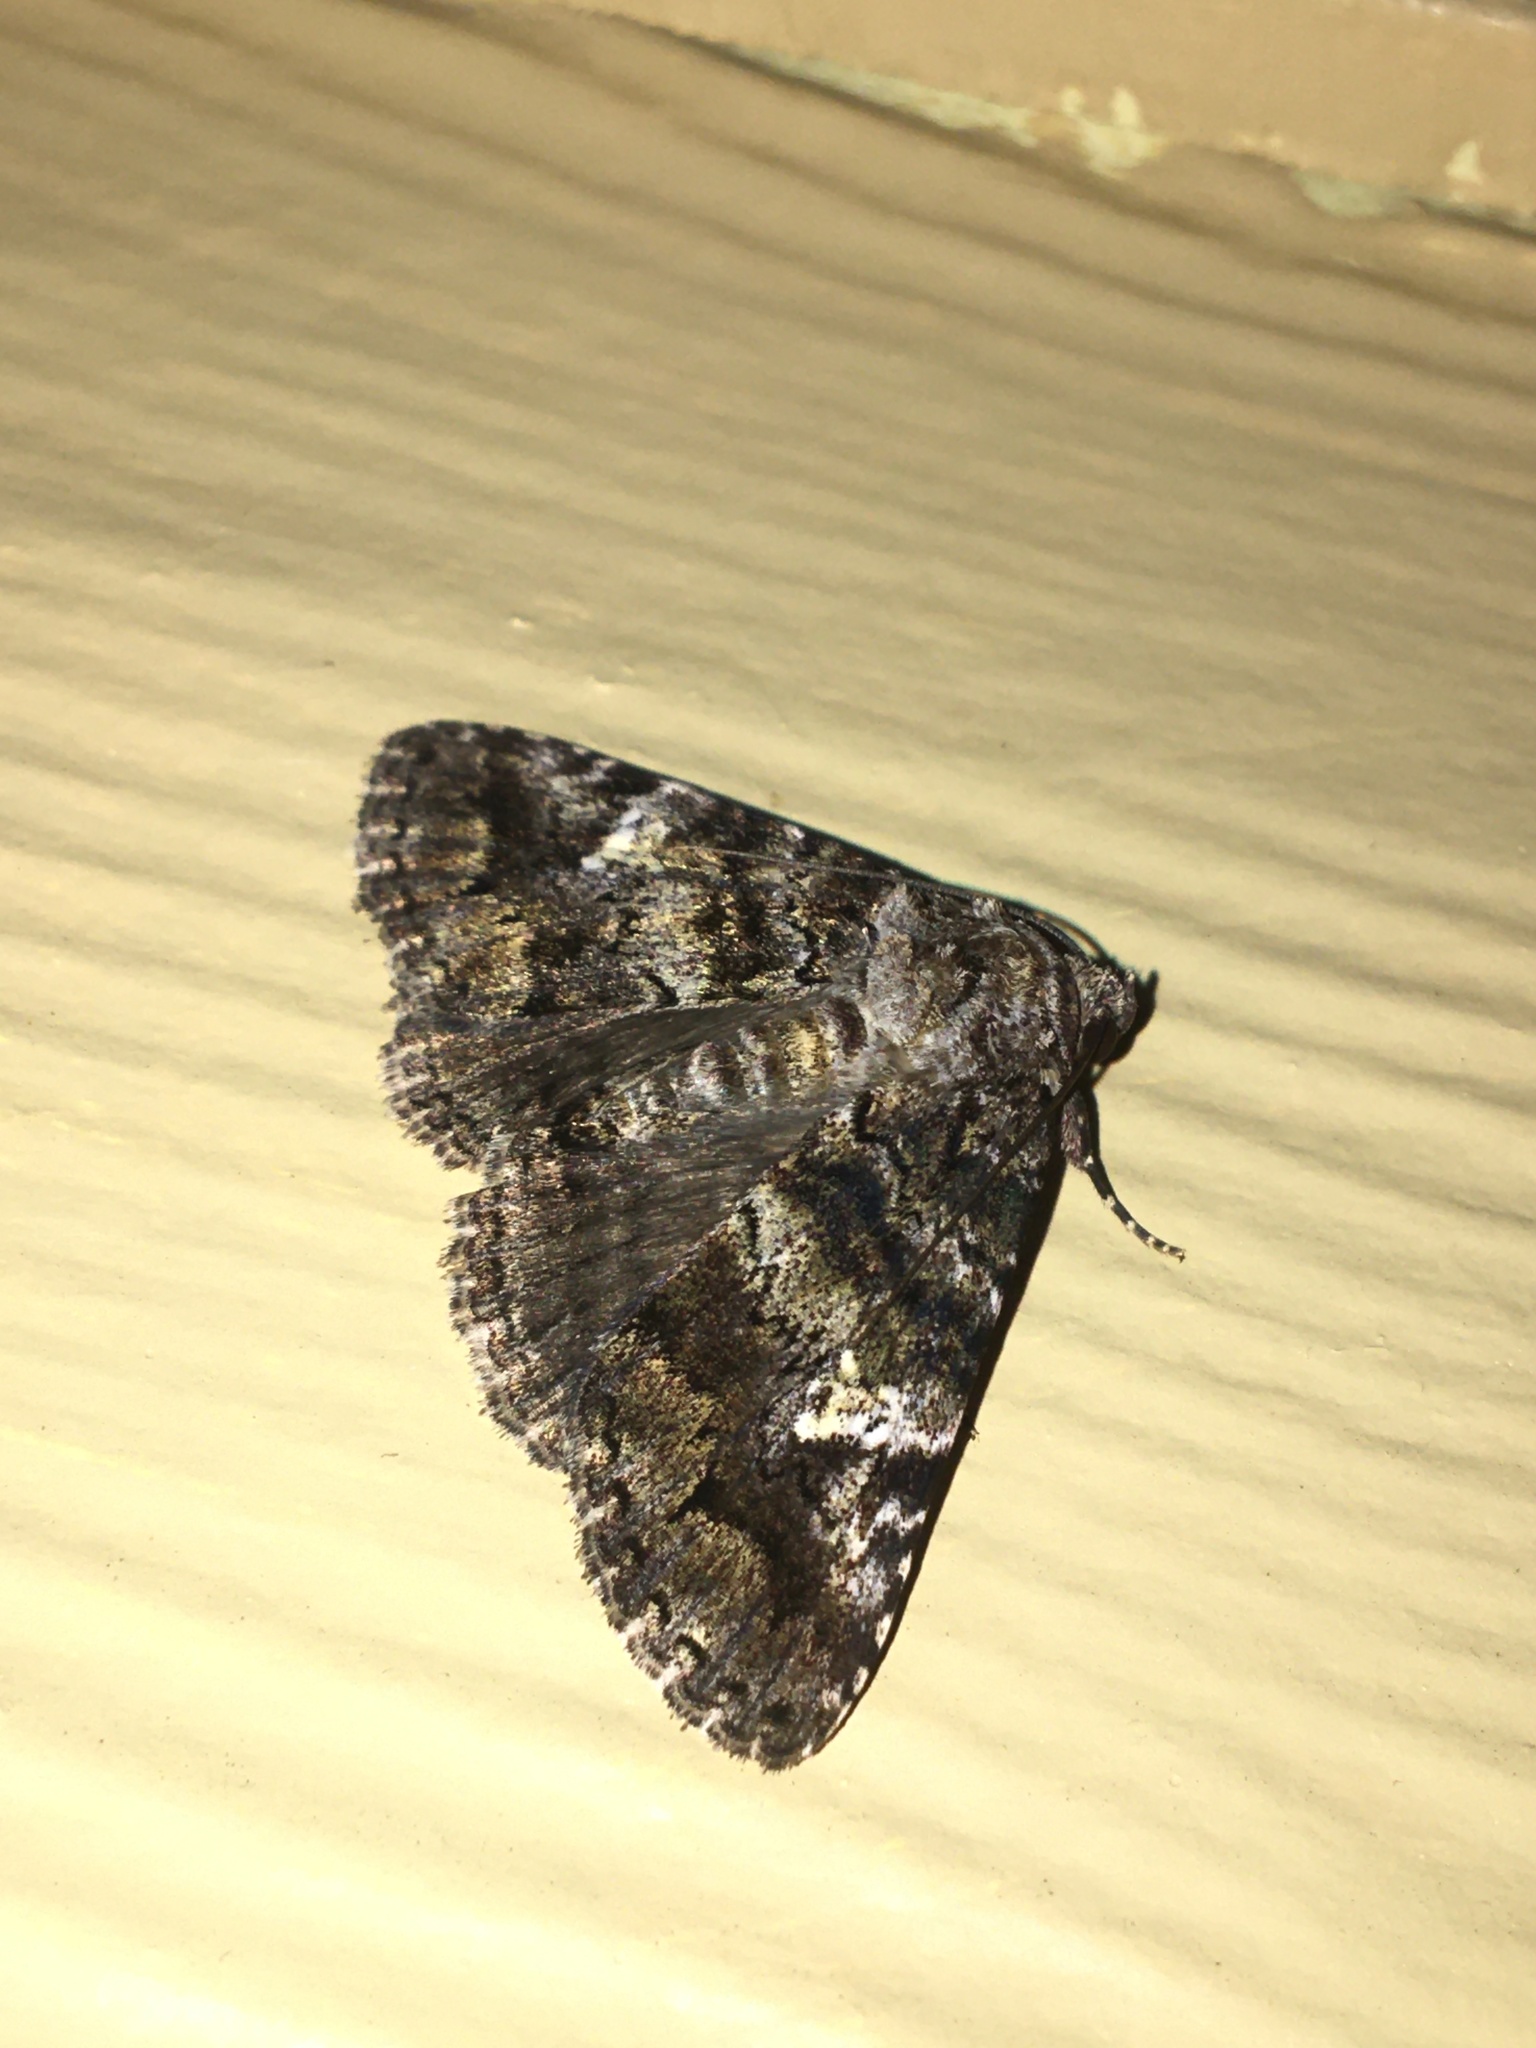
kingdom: Animalia
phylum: Arthropoda
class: Insecta
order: Lepidoptera
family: Erebidae
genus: Metria
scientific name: Metria amella
